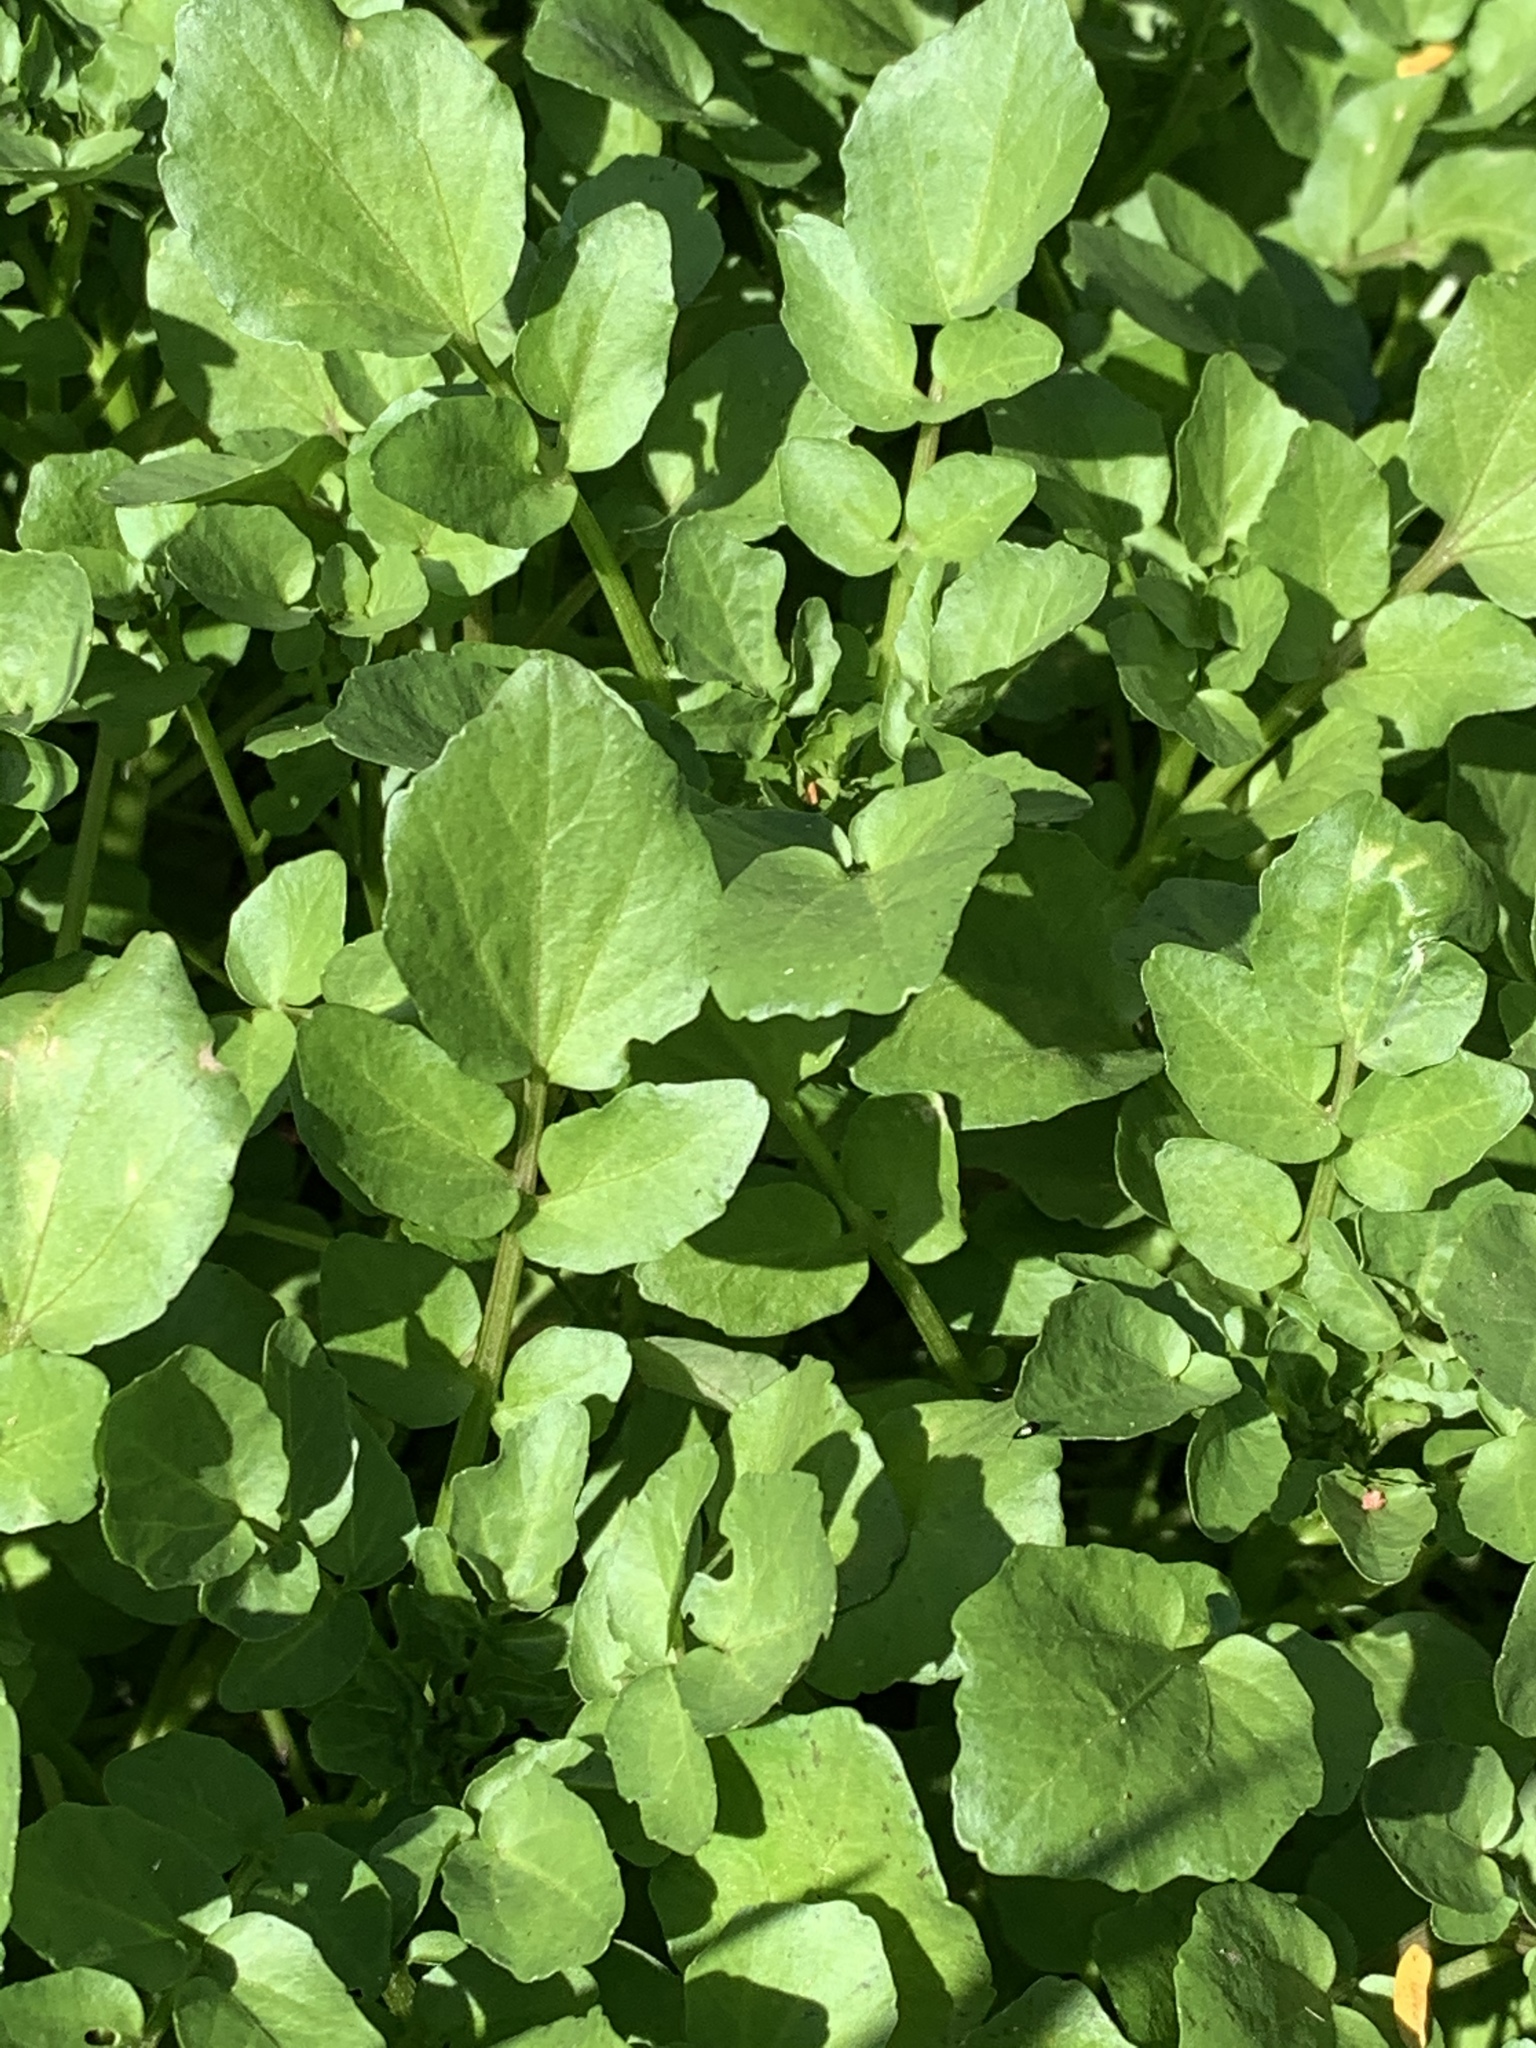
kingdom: Plantae
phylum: Tracheophyta
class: Magnoliopsida
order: Brassicales
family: Brassicaceae
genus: Nasturtium
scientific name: Nasturtium officinale
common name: Watercress
